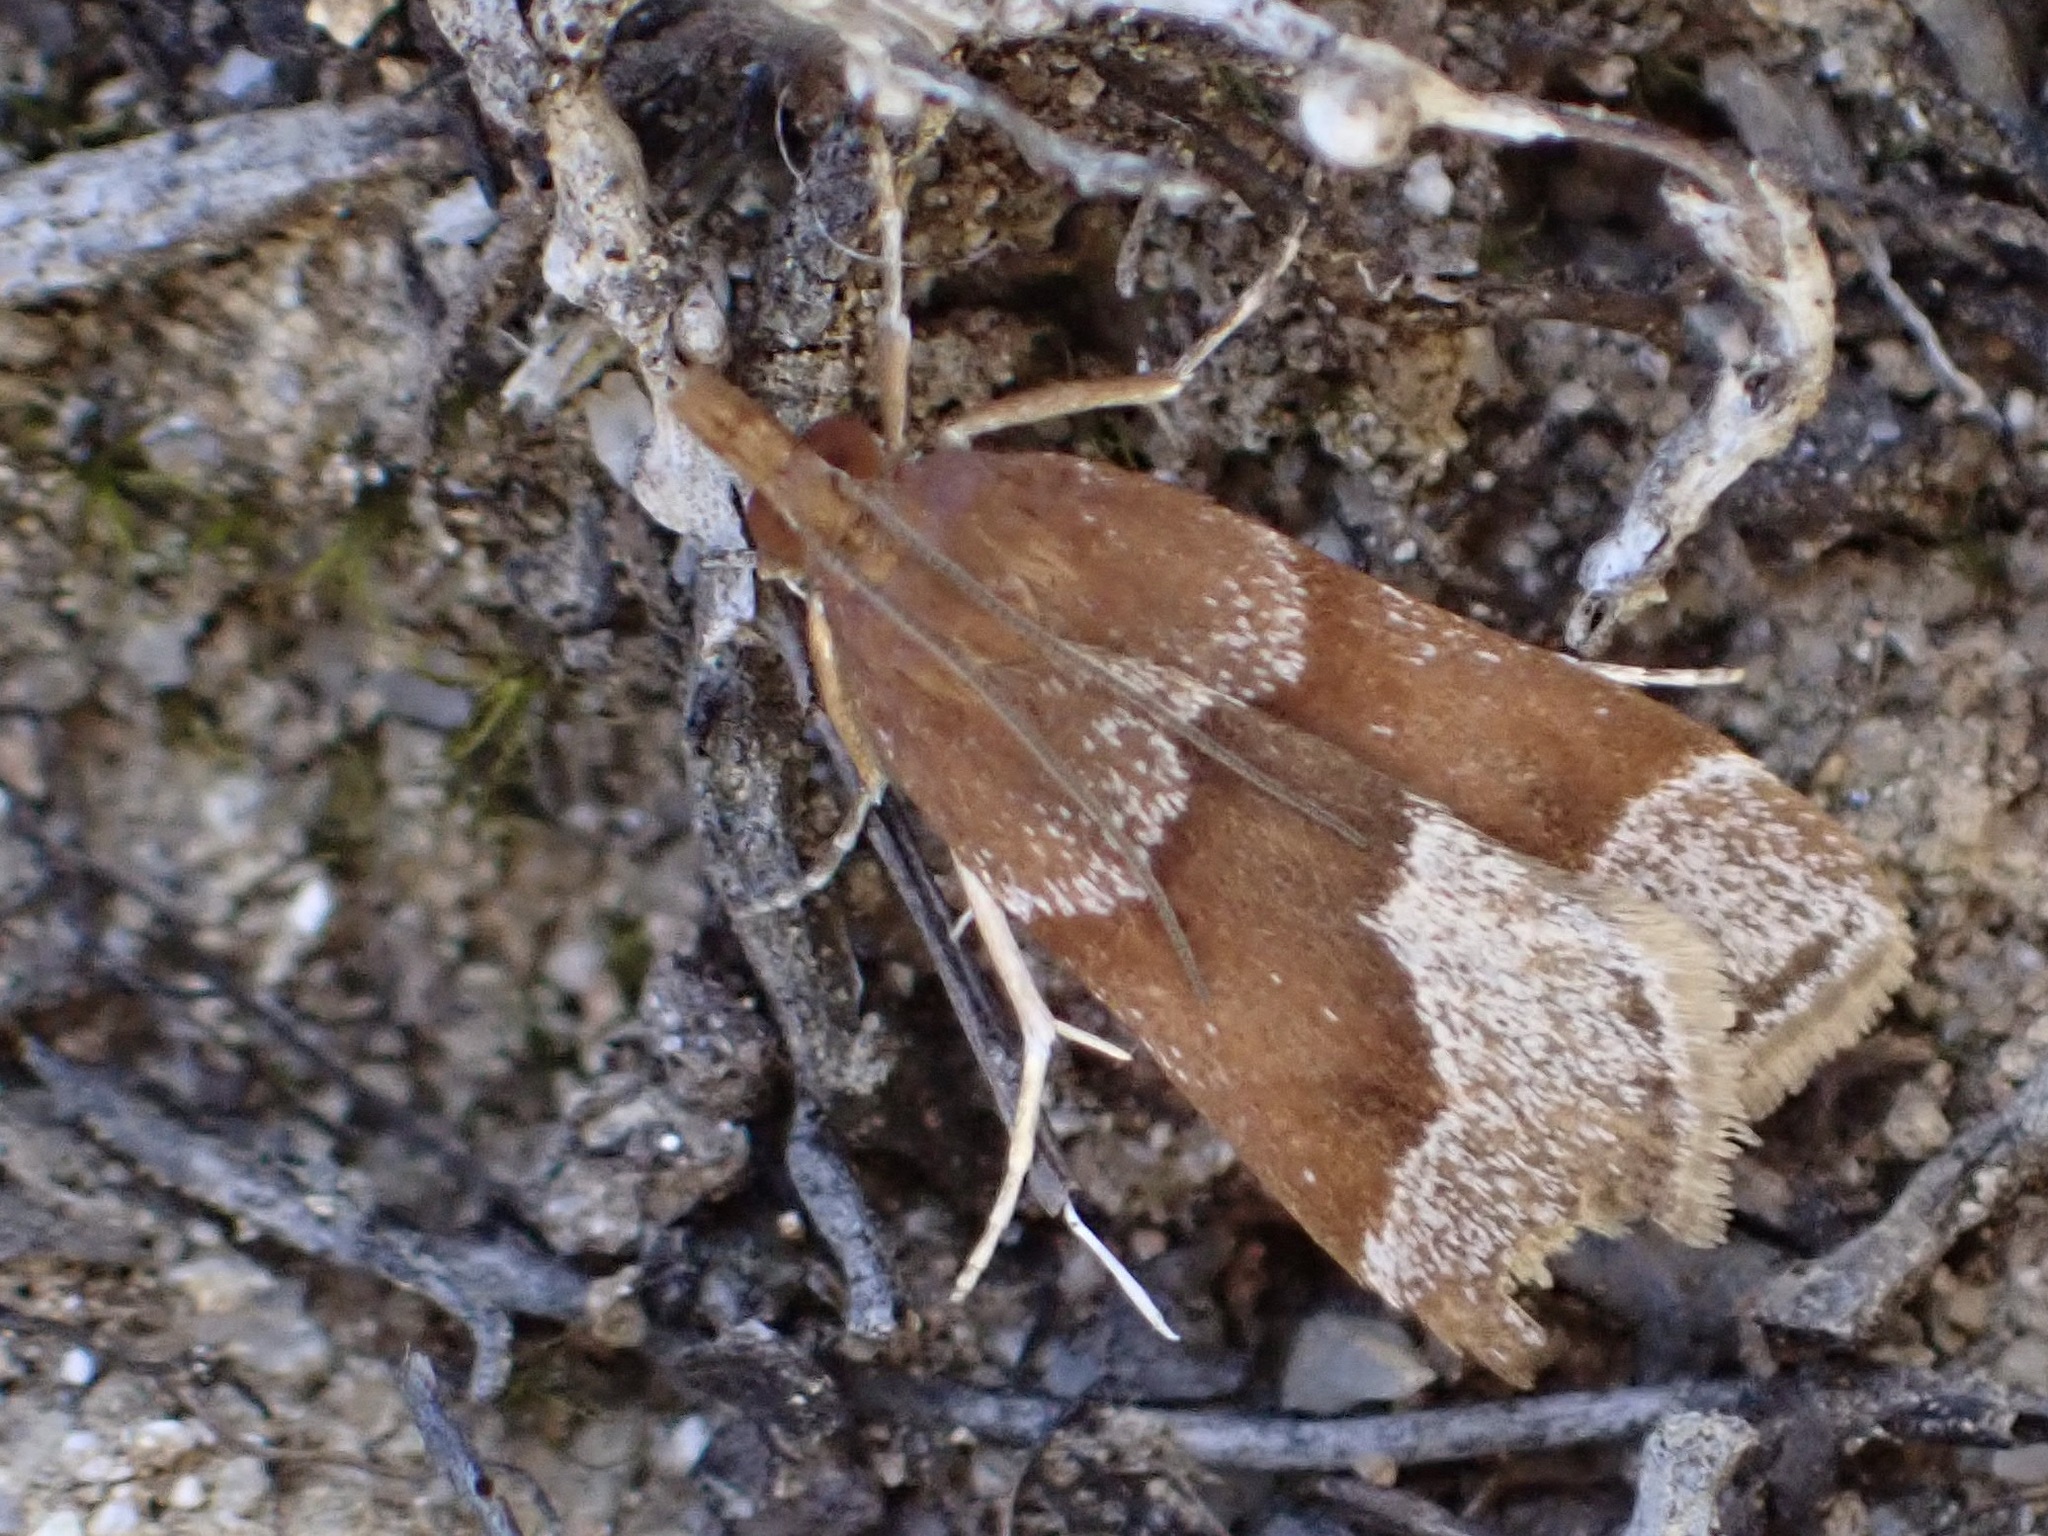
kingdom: Animalia
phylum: Arthropoda
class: Insecta
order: Lepidoptera
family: Crambidae
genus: Eudonia
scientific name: Eudonia feredayi
